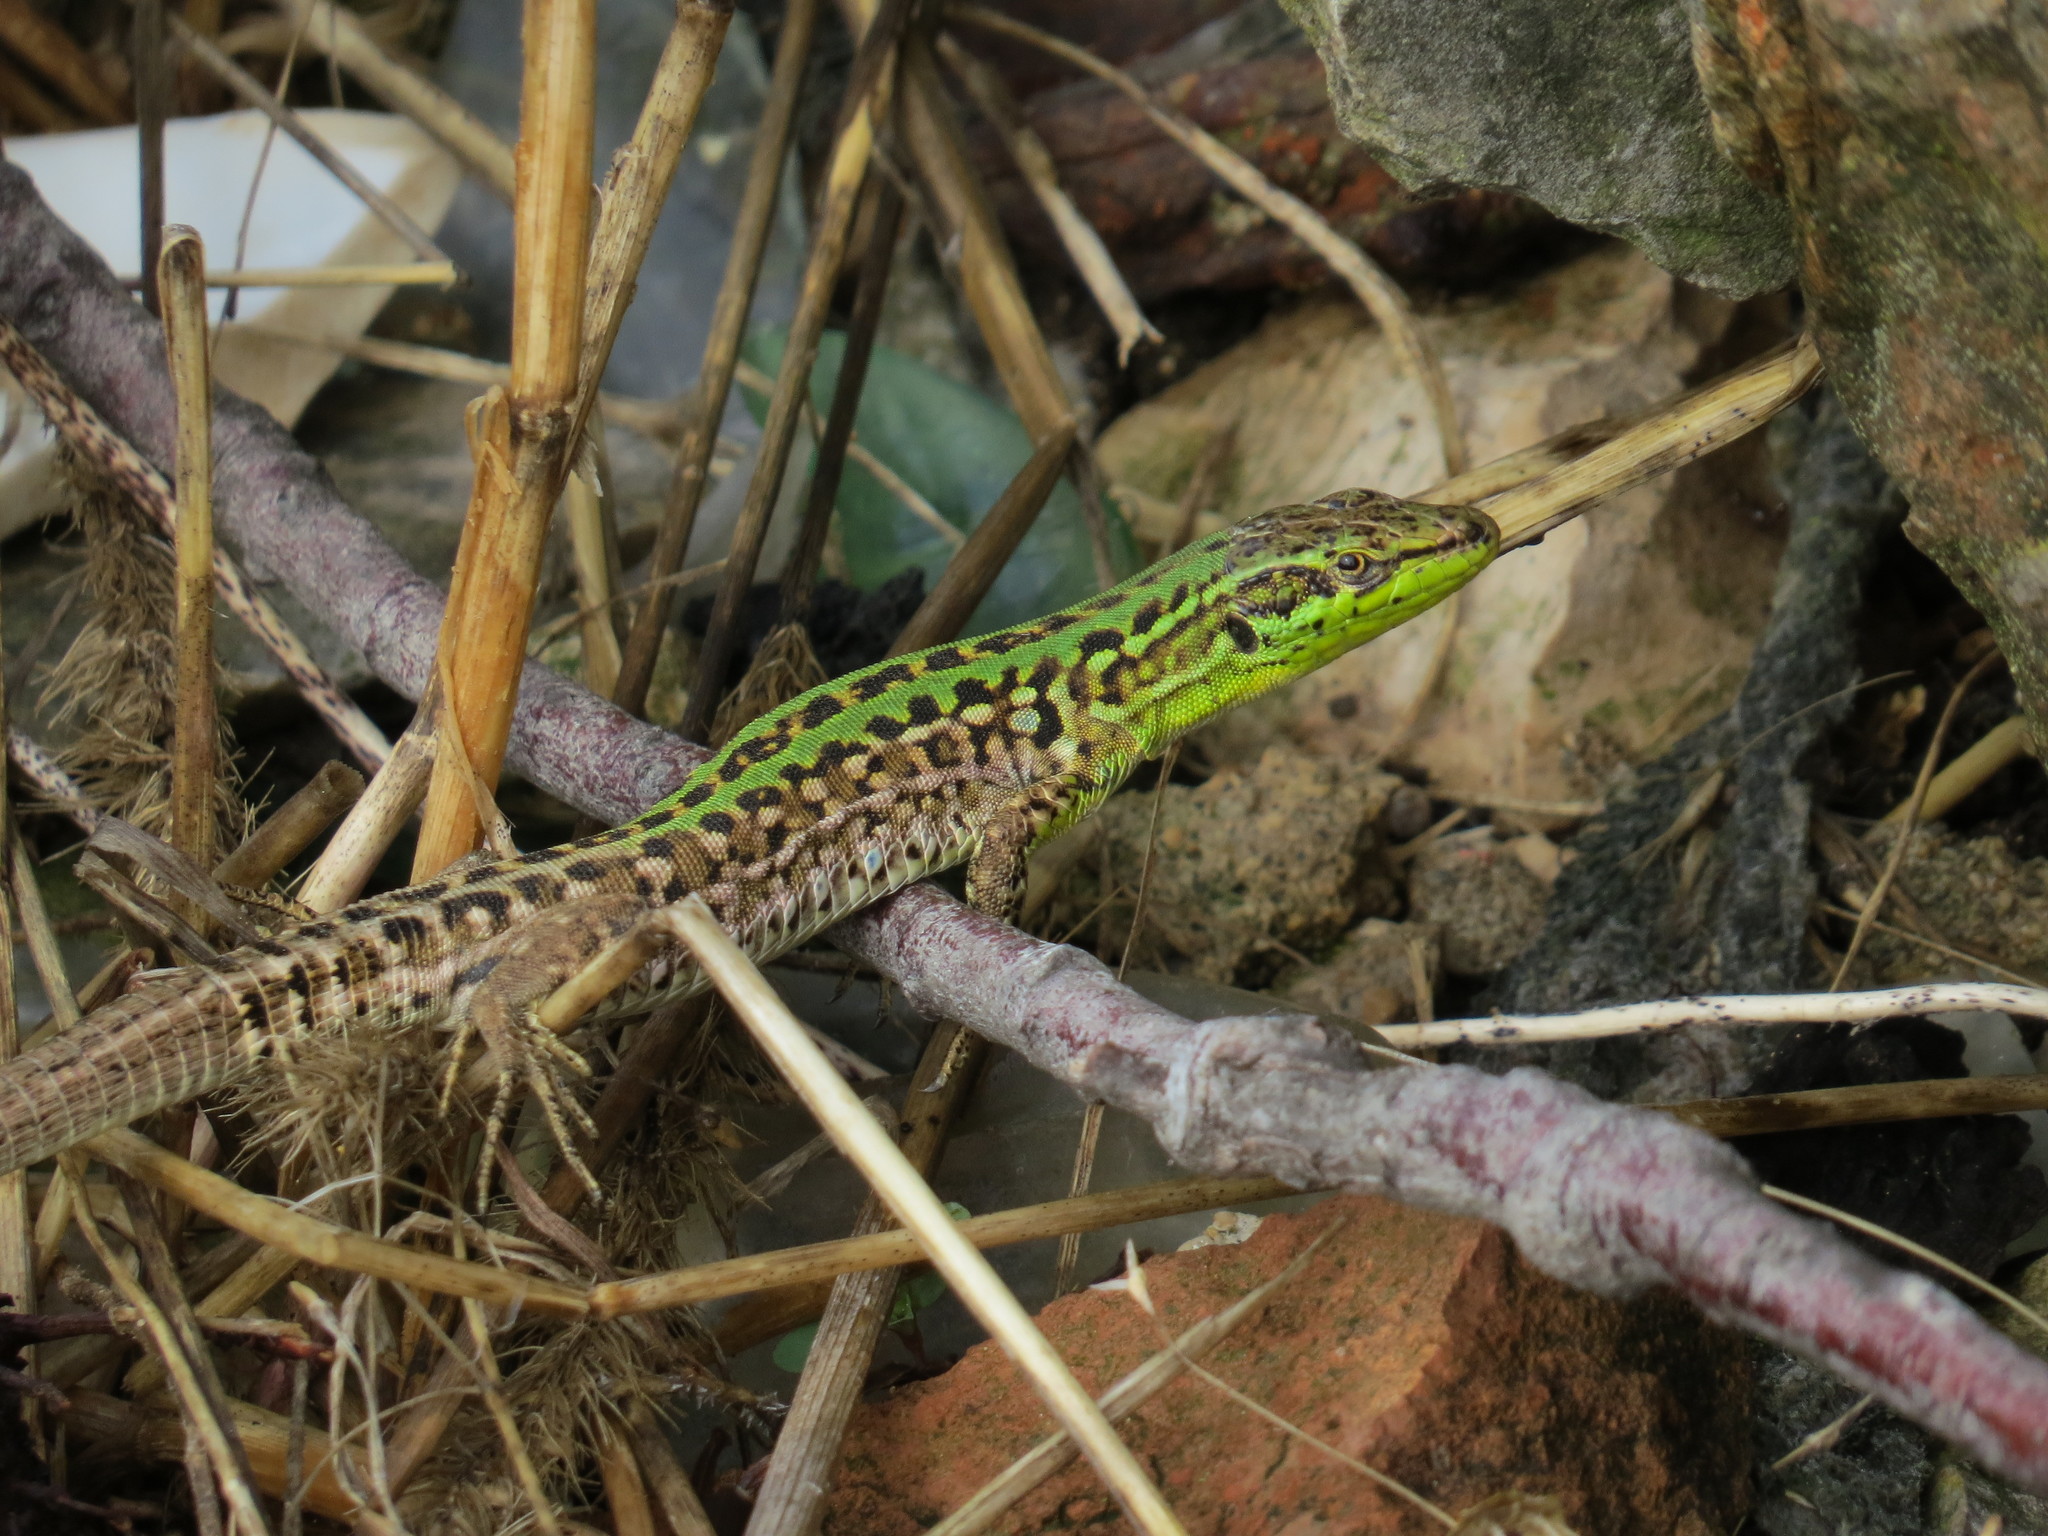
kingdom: Animalia
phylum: Chordata
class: Squamata
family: Lacertidae
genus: Podarcis
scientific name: Podarcis siculus
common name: Italian wall lizard
